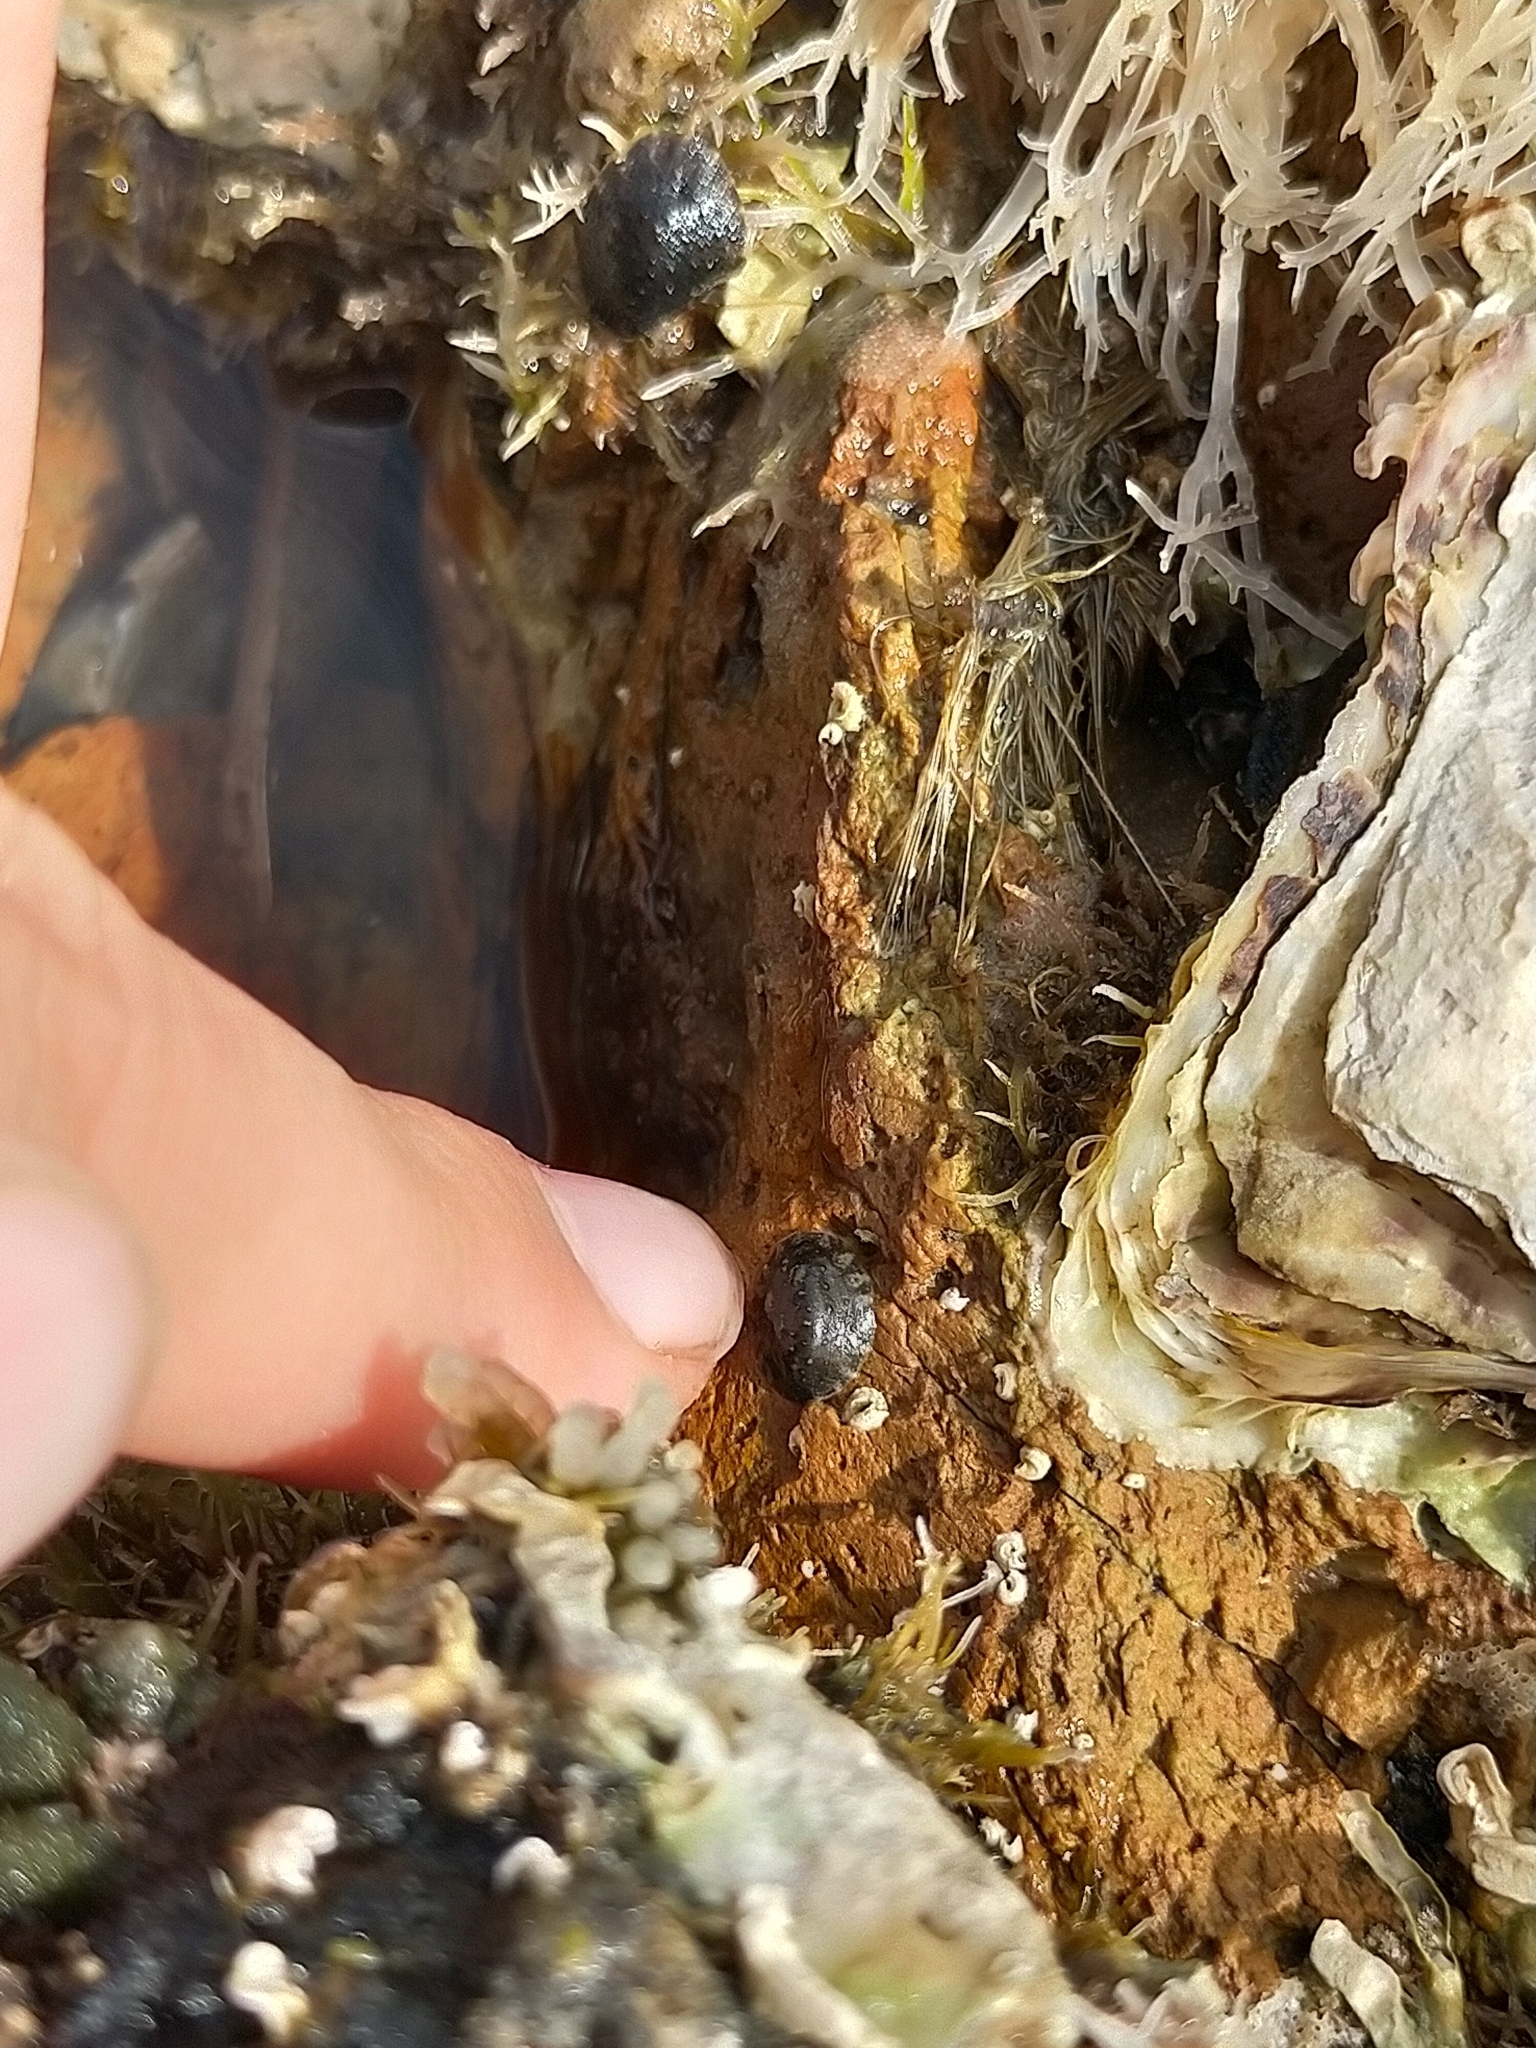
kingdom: Animalia
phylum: Mollusca
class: Gastropoda
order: Systellommatophora
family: Onchidiidae
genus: Onchidella
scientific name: Onchidella nigricans
